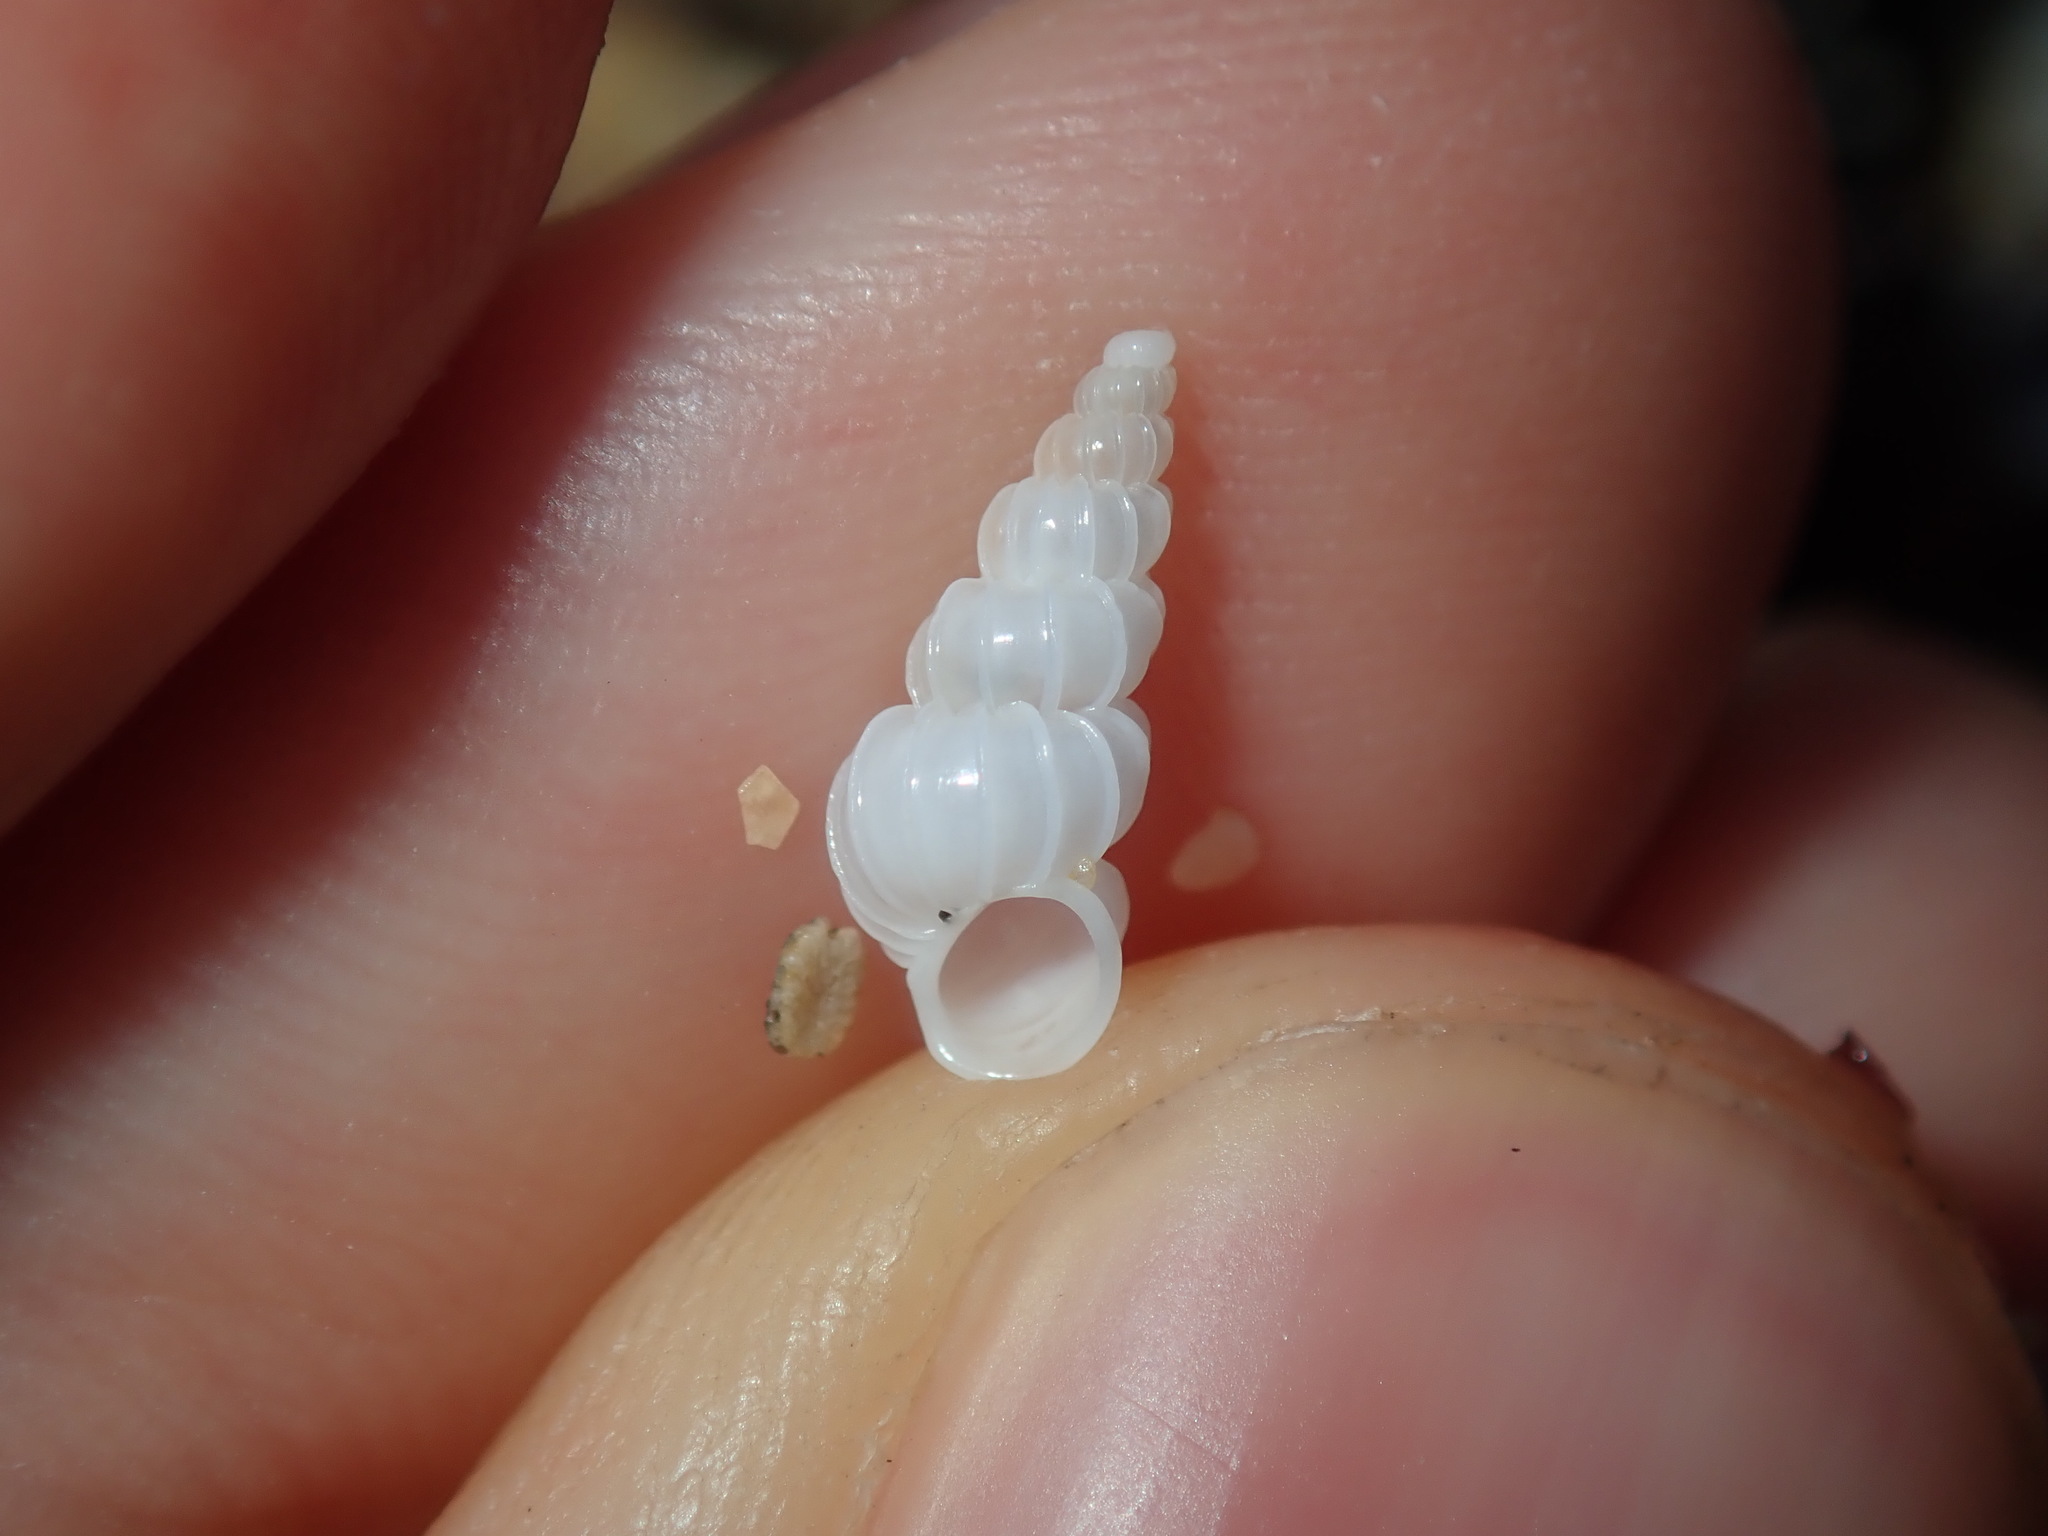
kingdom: Animalia
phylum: Mollusca
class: Gastropoda
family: Epitoniidae
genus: Epitonium
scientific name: Epitonium jukesianum
